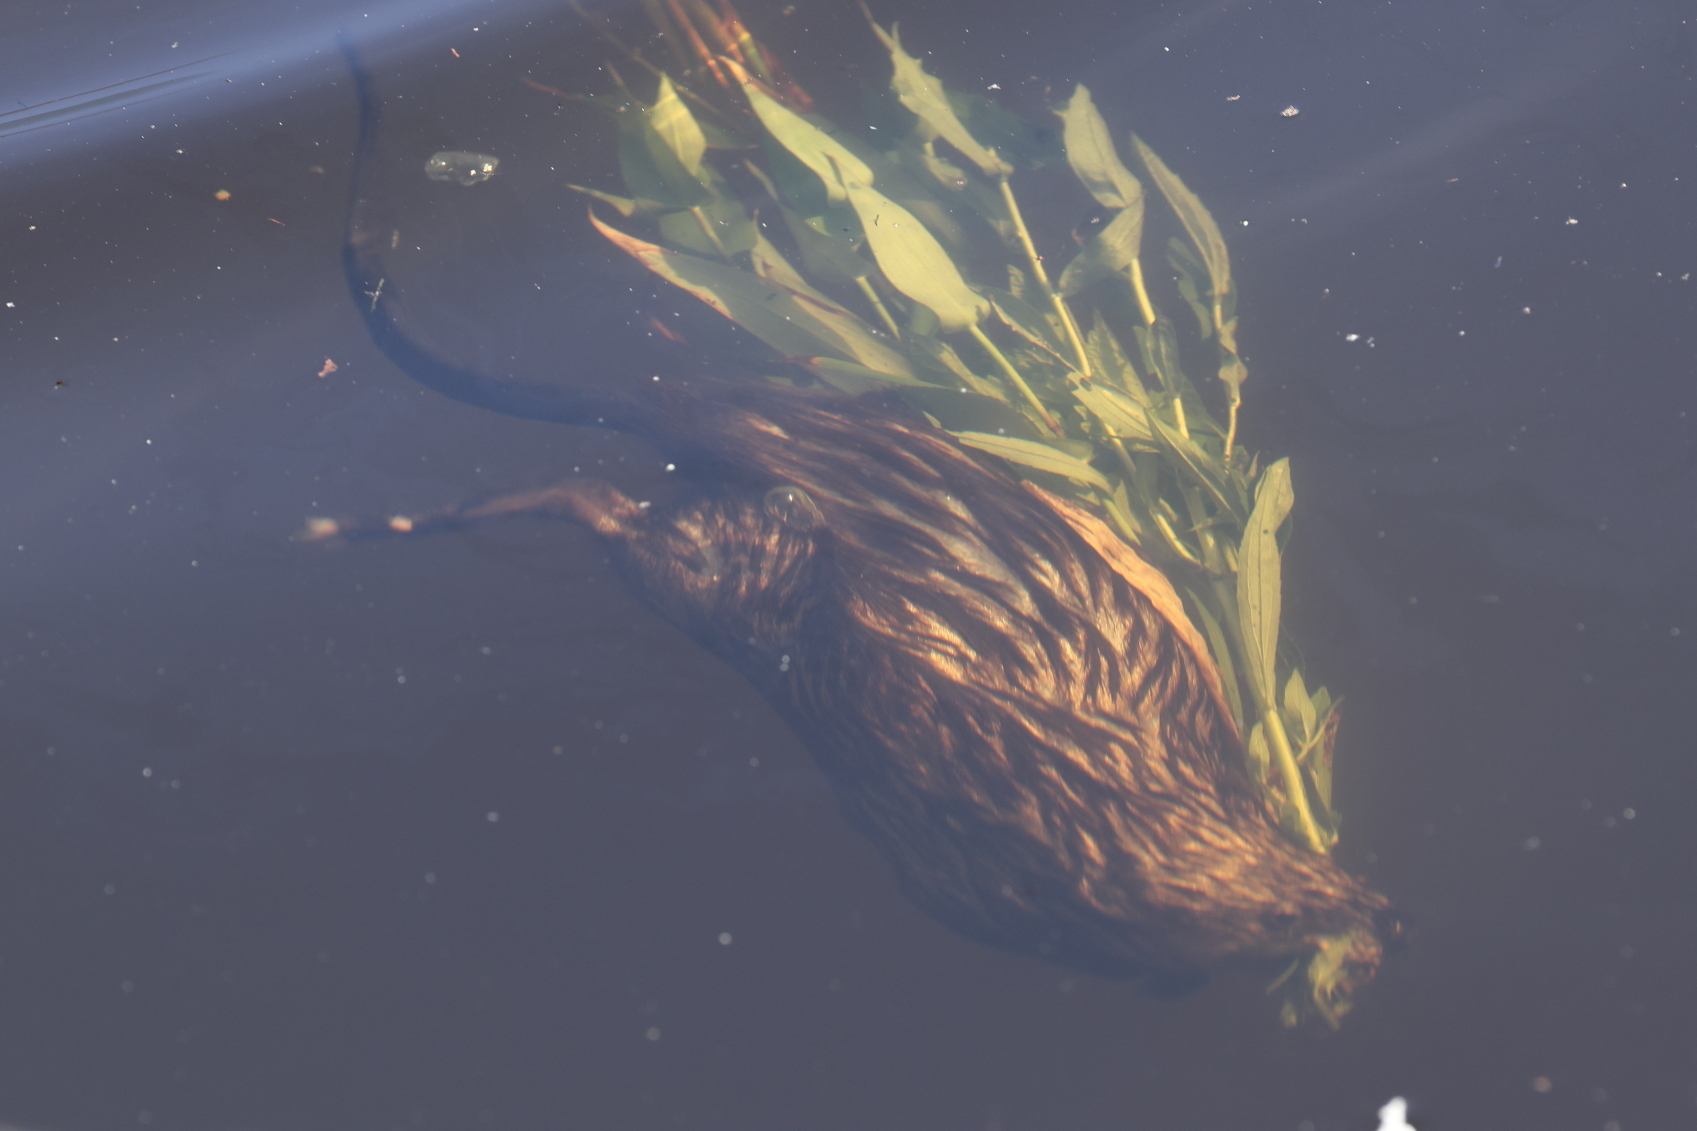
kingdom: Animalia
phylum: Chordata
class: Mammalia
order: Rodentia
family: Cricetidae
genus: Ondatra
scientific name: Ondatra zibethicus
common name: Muskrat
